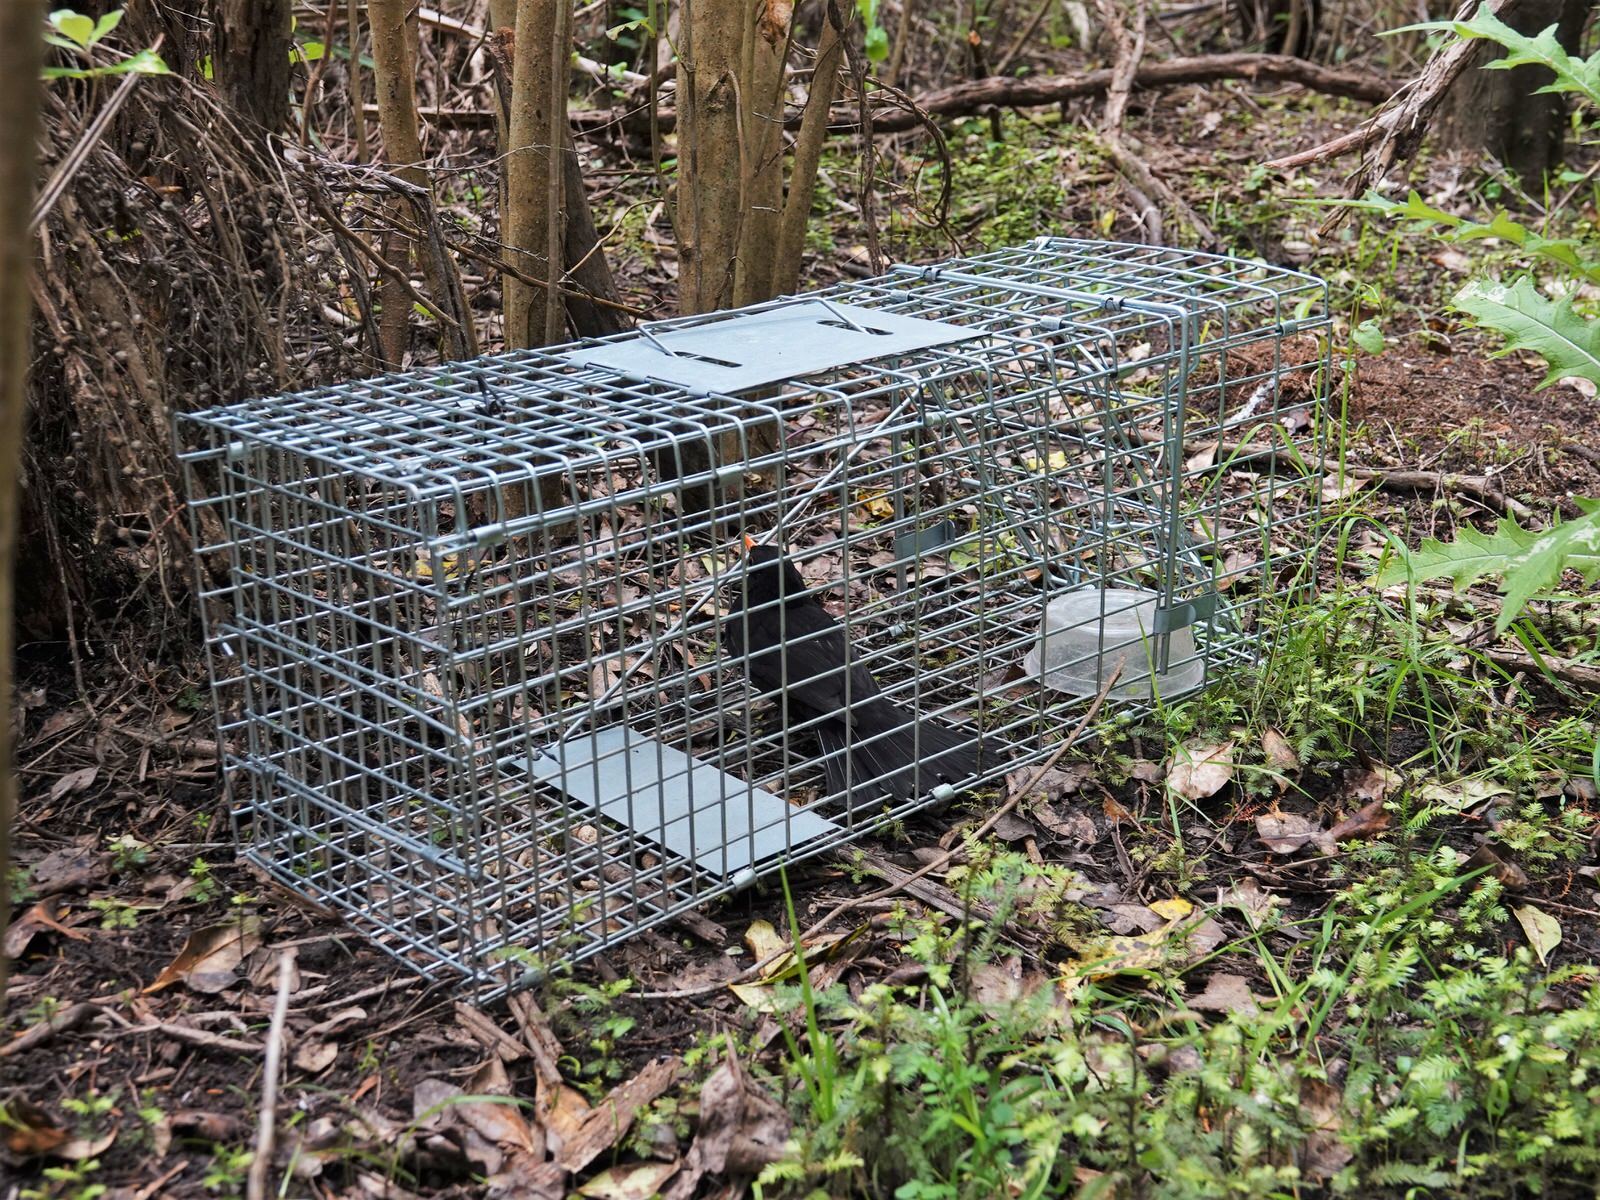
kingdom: Animalia
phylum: Chordata
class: Aves
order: Passeriformes
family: Turdidae
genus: Turdus
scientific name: Turdus merula
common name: Common blackbird
